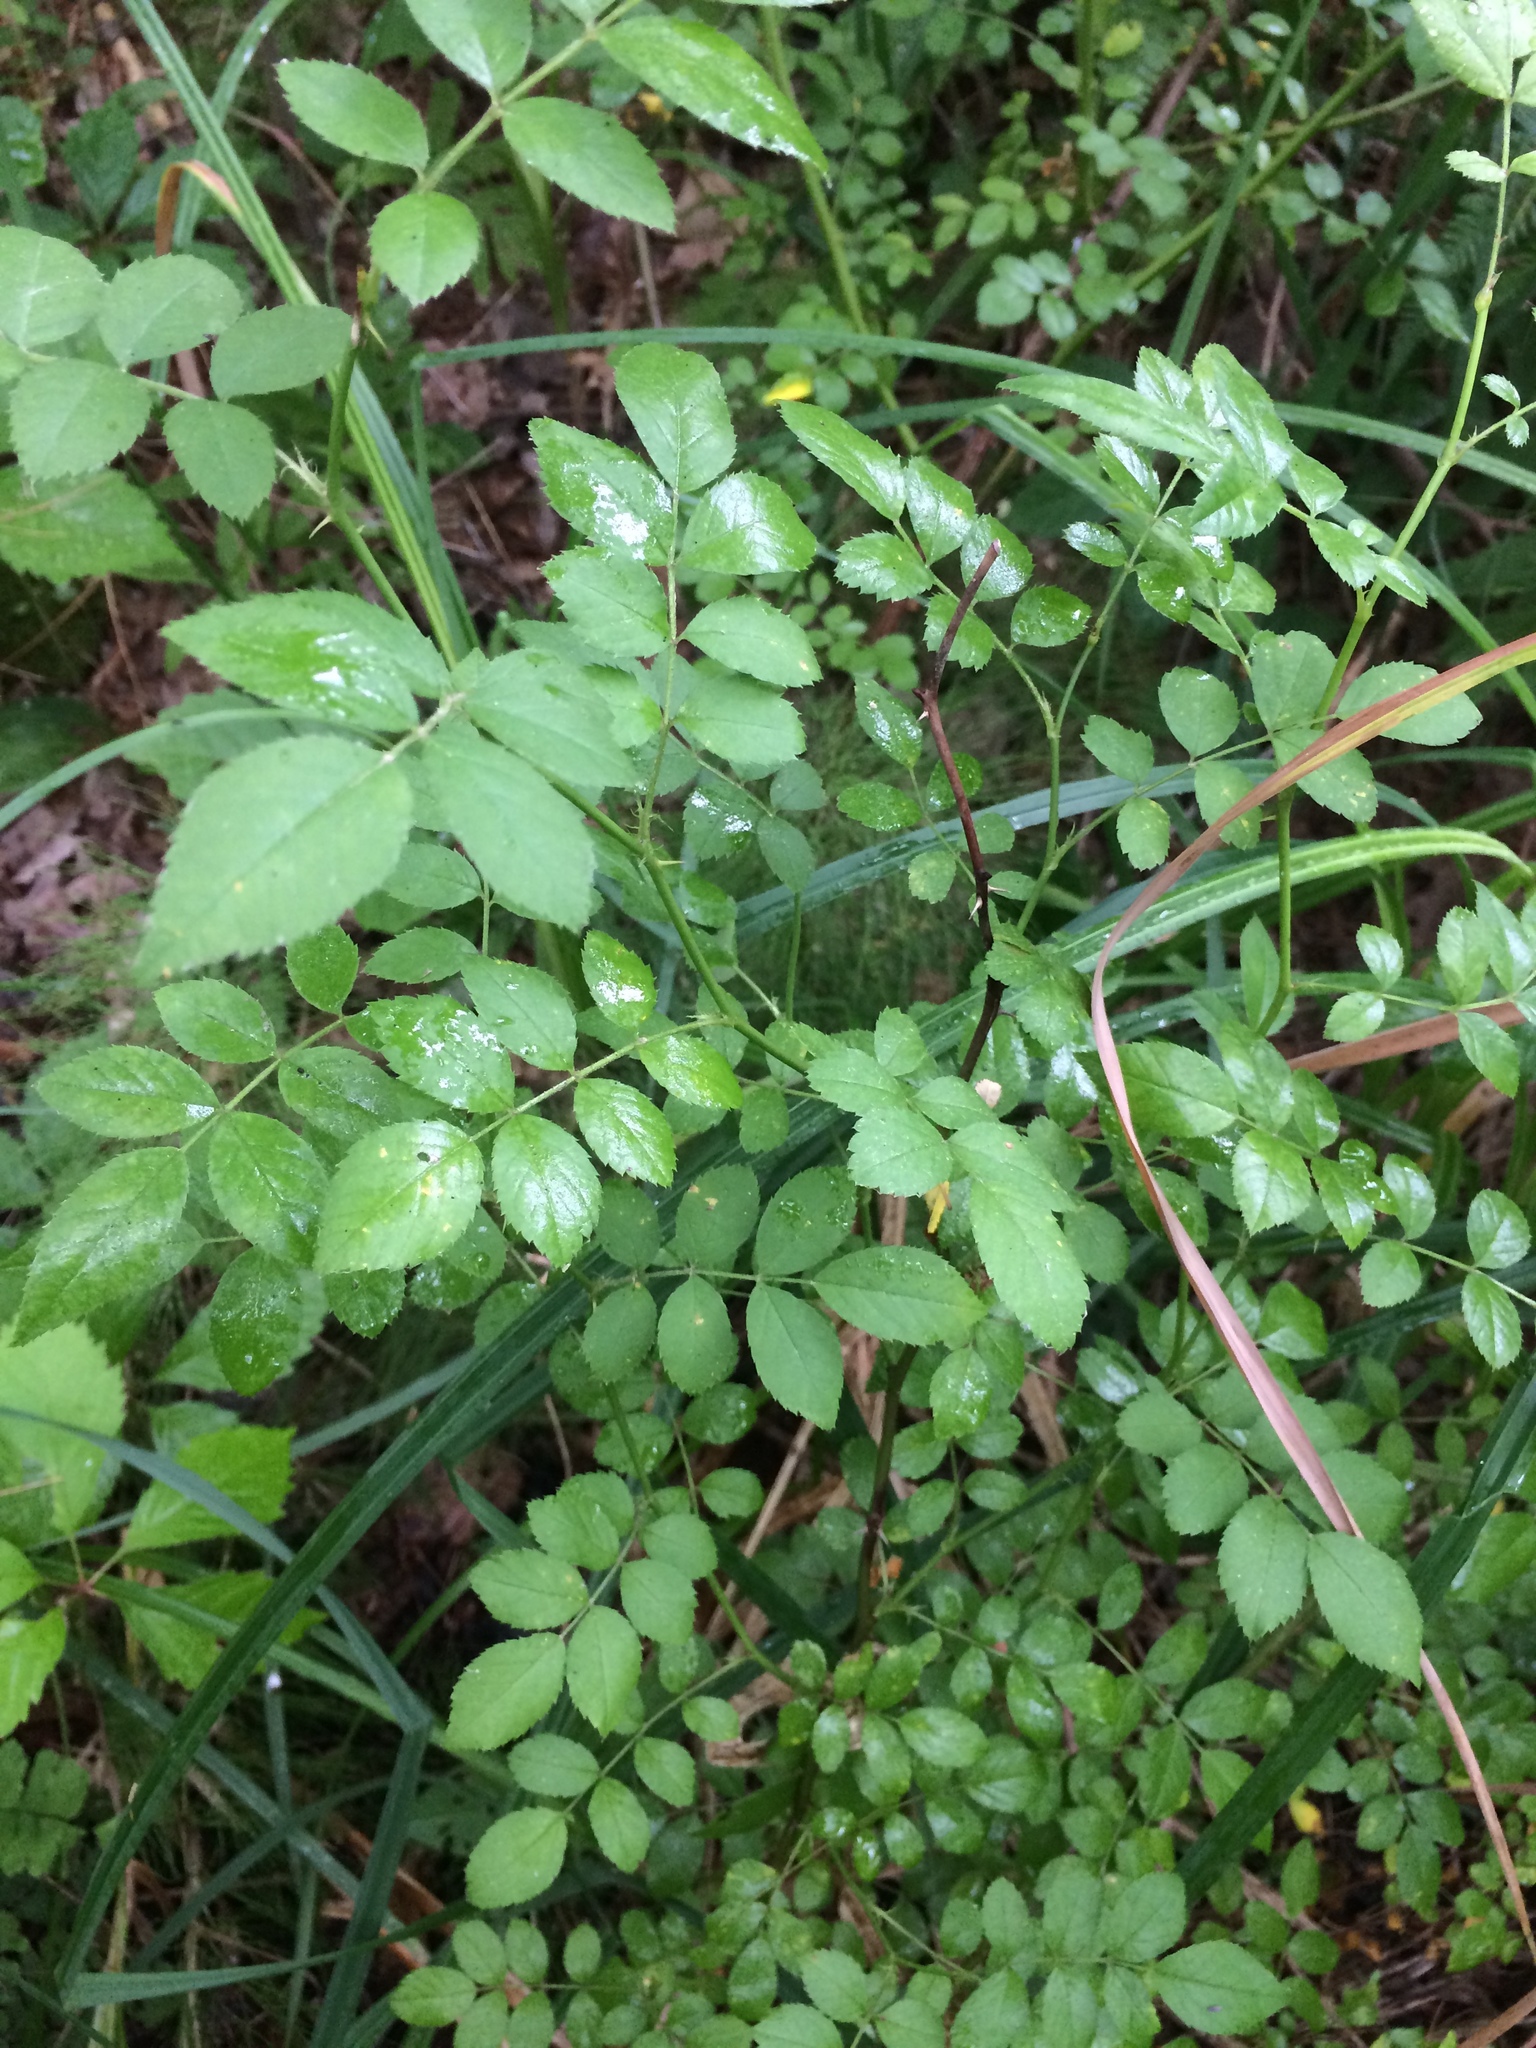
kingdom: Plantae
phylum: Tracheophyta
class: Magnoliopsida
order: Rosales
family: Rosaceae
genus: Rosa
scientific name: Rosa multiflora
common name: Multiflora rose
